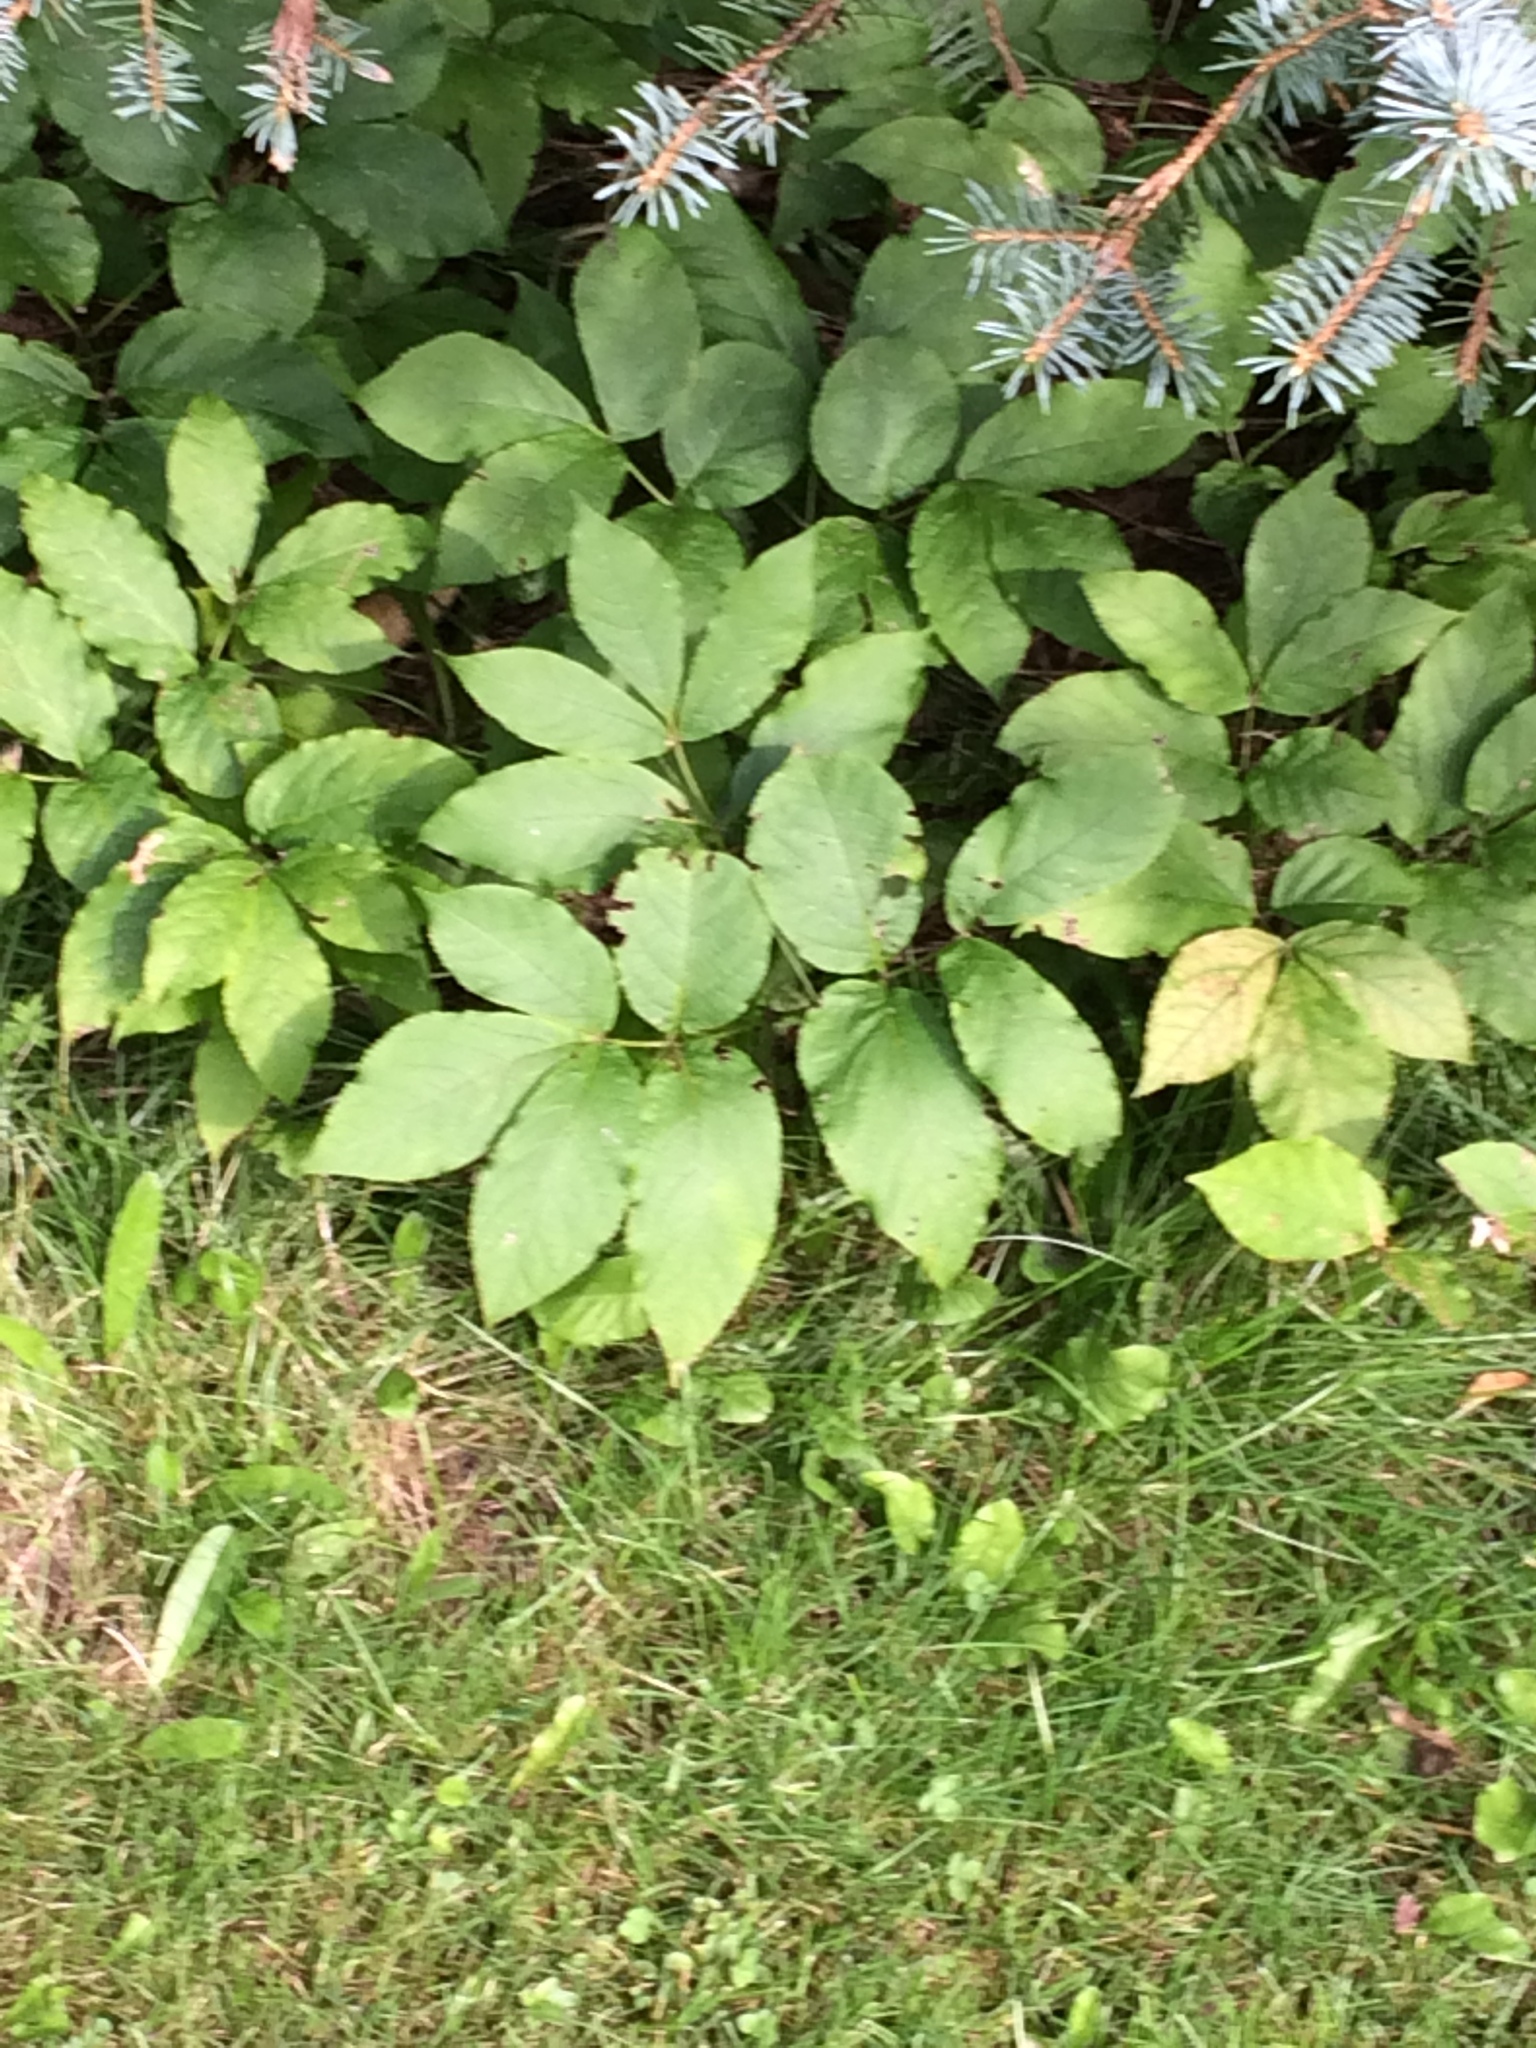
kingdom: Plantae
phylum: Tracheophyta
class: Magnoliopsida
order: Apiales
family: Araliaceae
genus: Aralia
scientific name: Aralia nudicaulis
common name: Wild sarsaparilla
